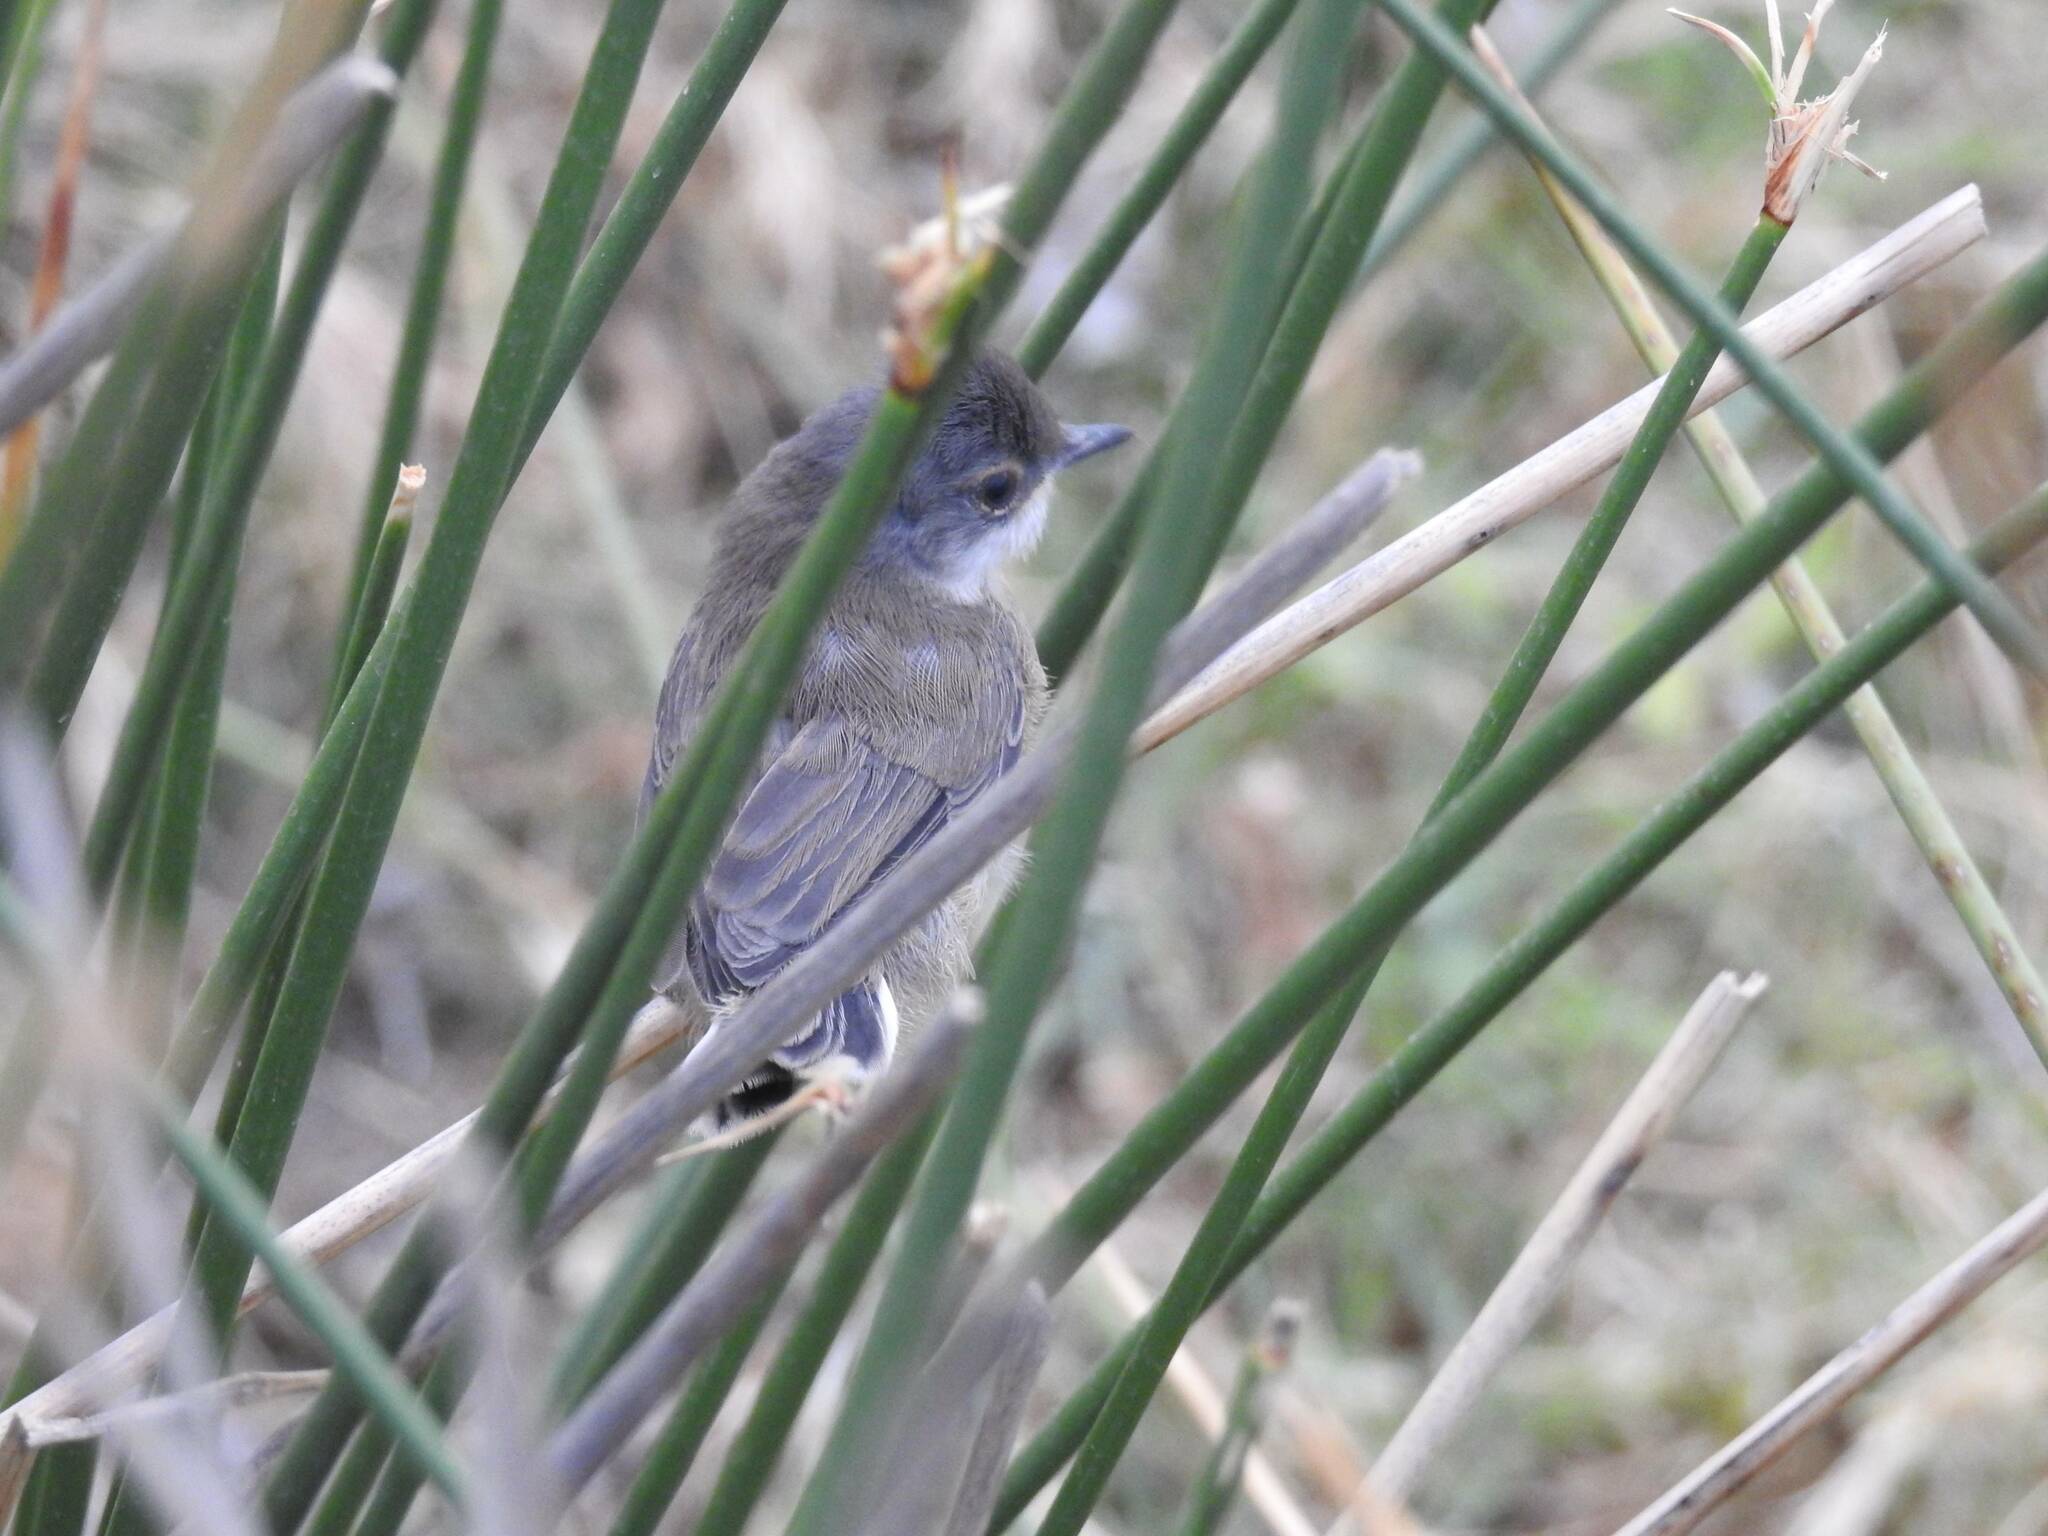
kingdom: Animalia
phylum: Chordata
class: Aves
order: Passeriformes
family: Sylviidae
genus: Curruca
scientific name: Curruca melanocephala
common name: Sardinian warbler
